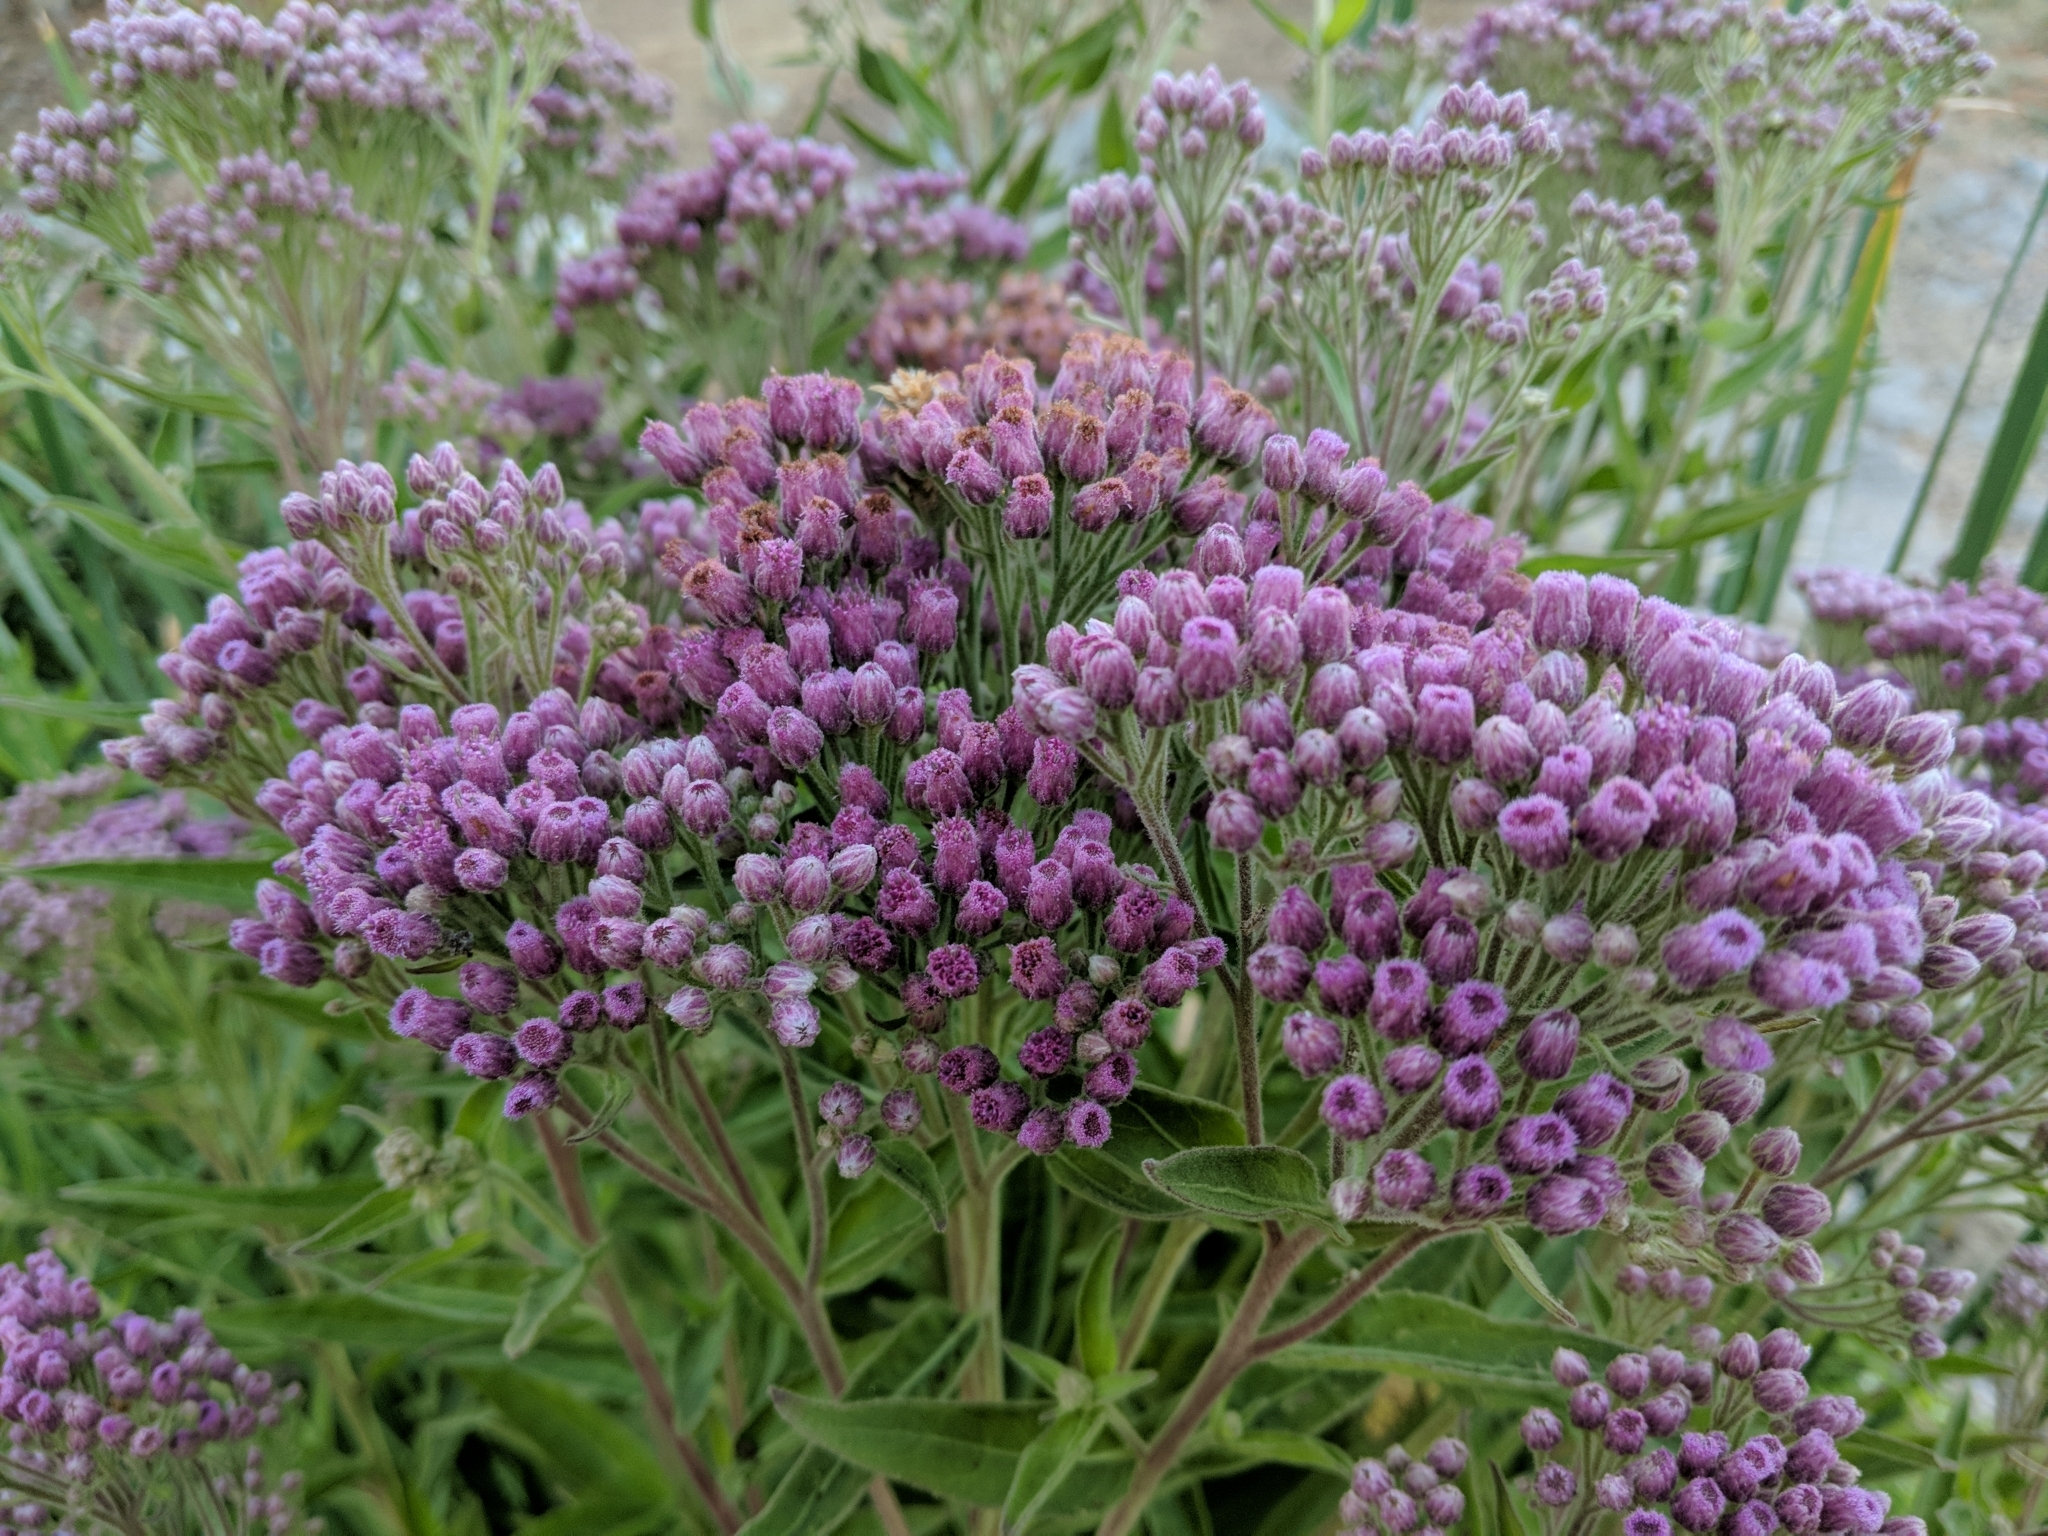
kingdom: Plantae
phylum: Tracheophyta
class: Magnoliopsida
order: Asterales
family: Asteraceae
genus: Pluchea
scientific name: Pluchea odorata
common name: Saltmarsh fleabane
